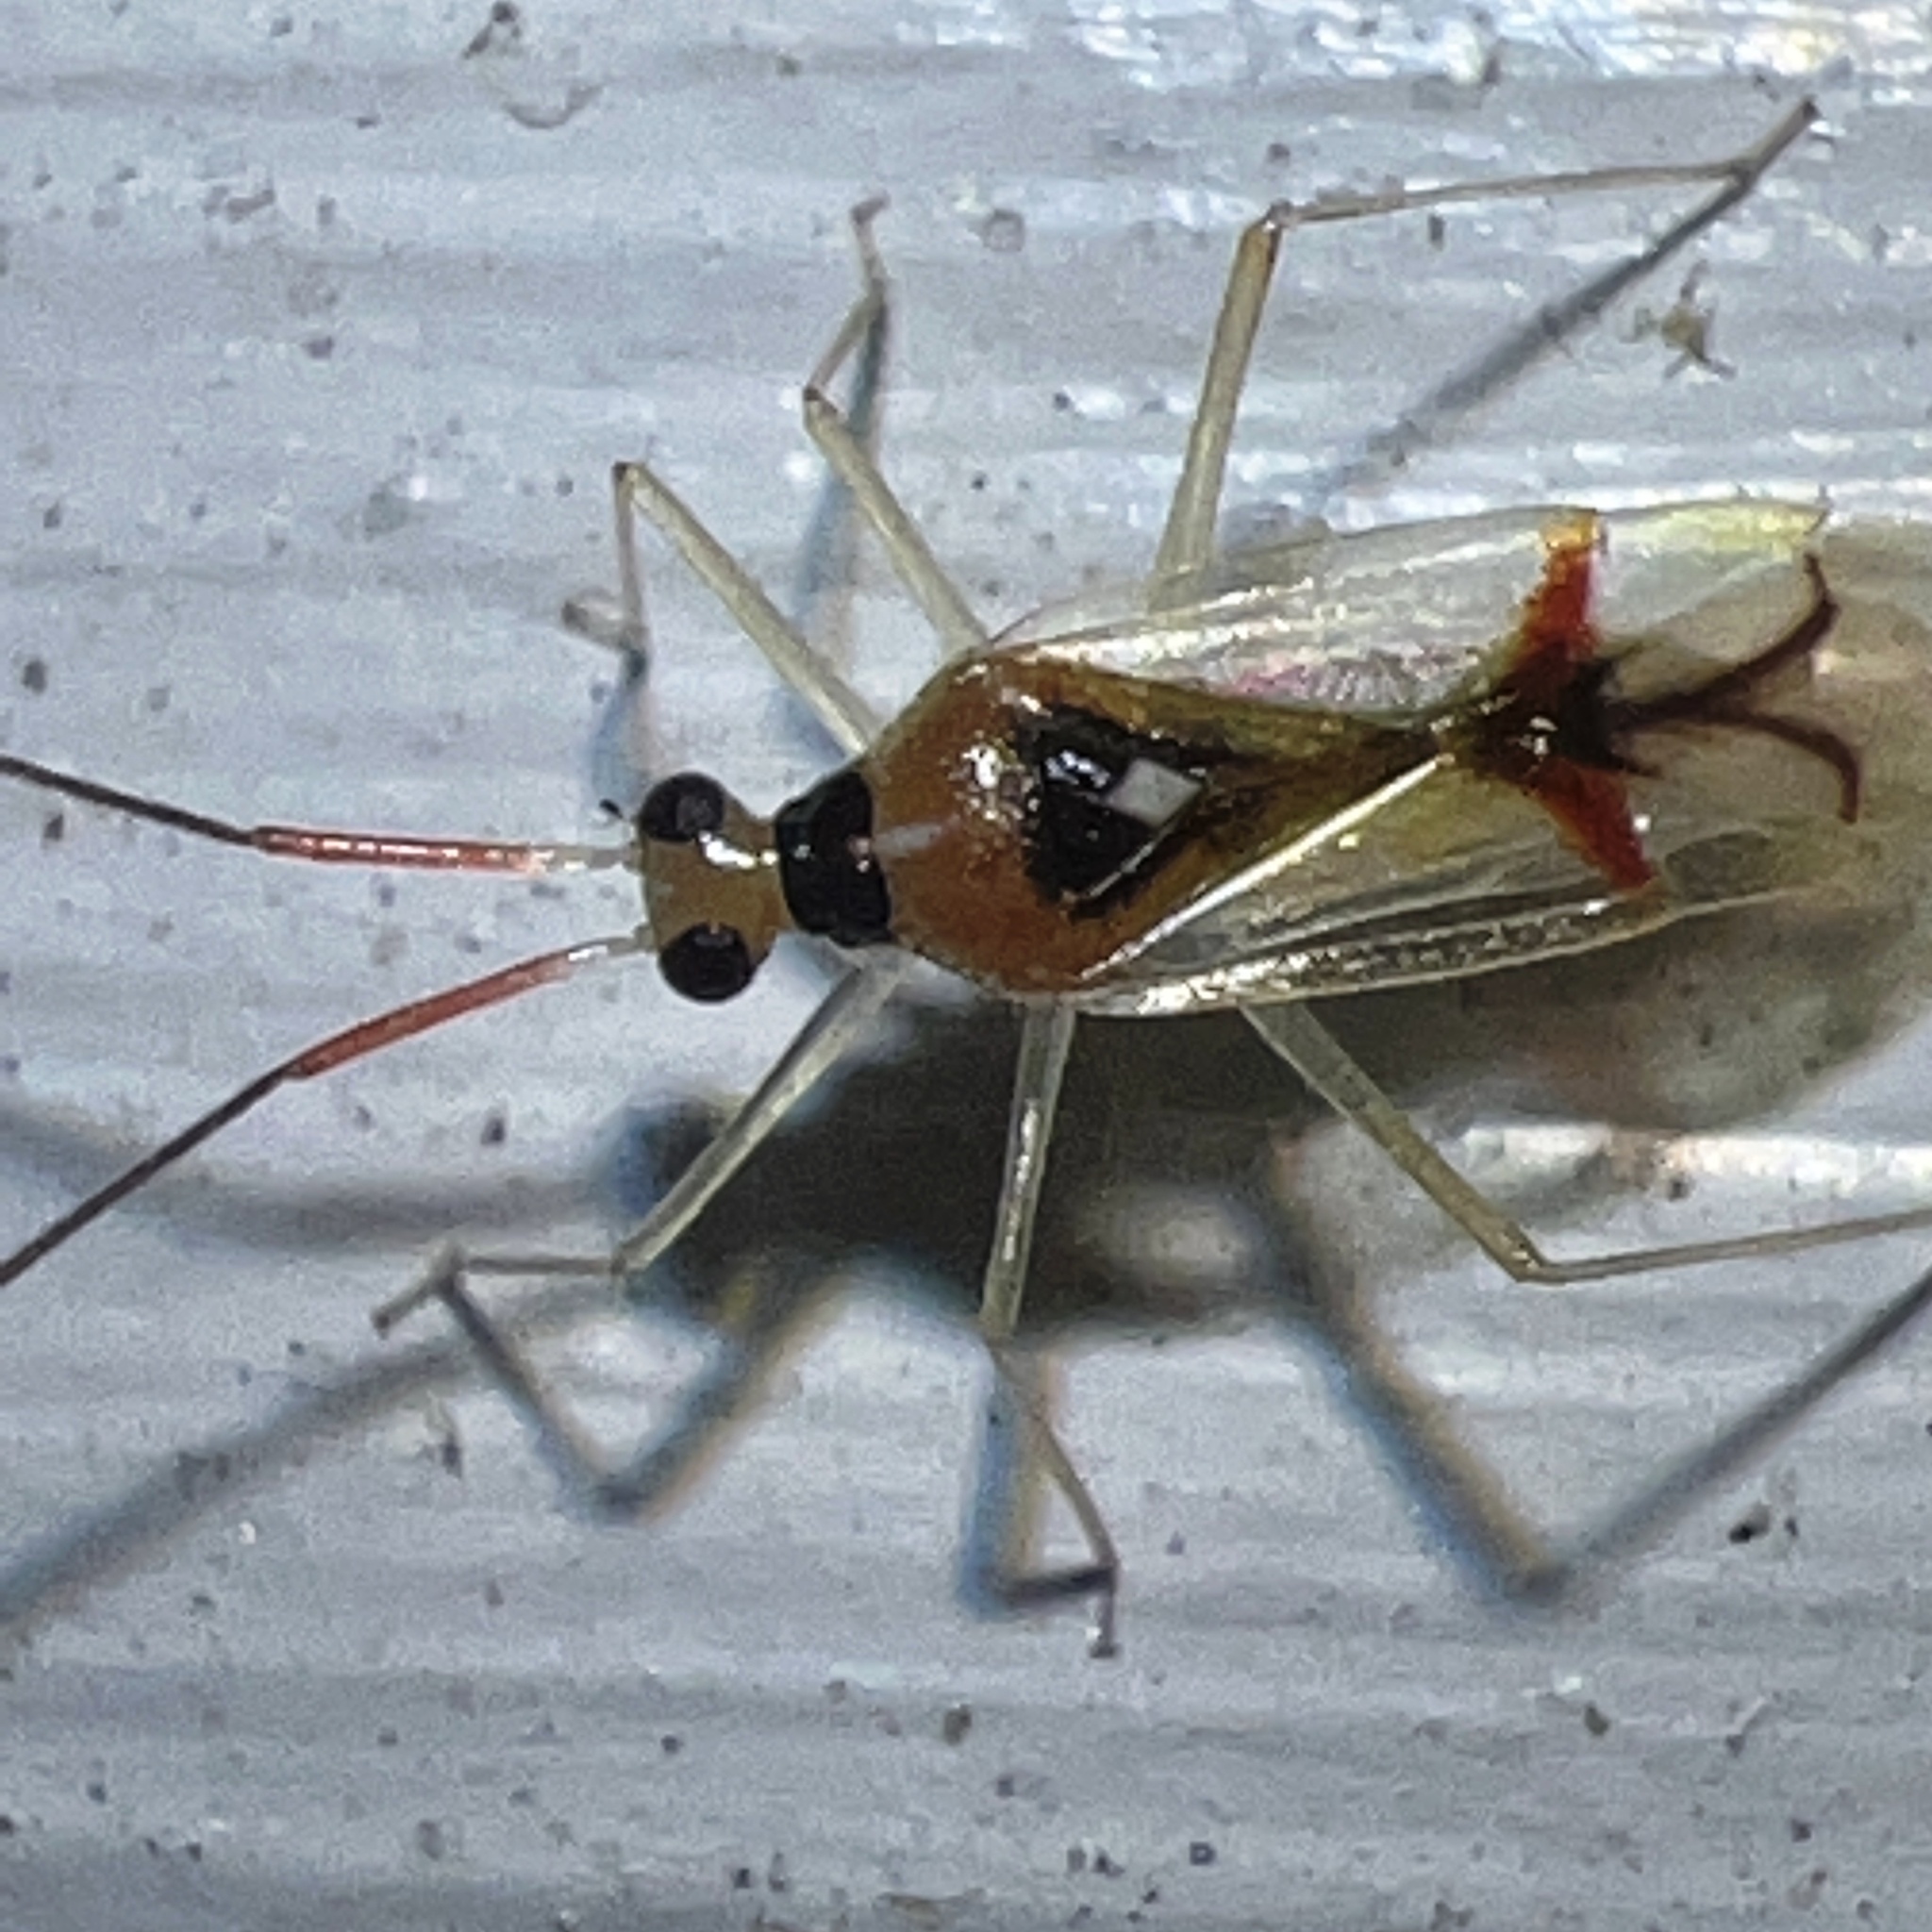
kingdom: Animalia
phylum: Arthropoda
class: Insecta
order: Hemiptera
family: Miridae
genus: Hyaliodes
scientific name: Hyaliodes harti
